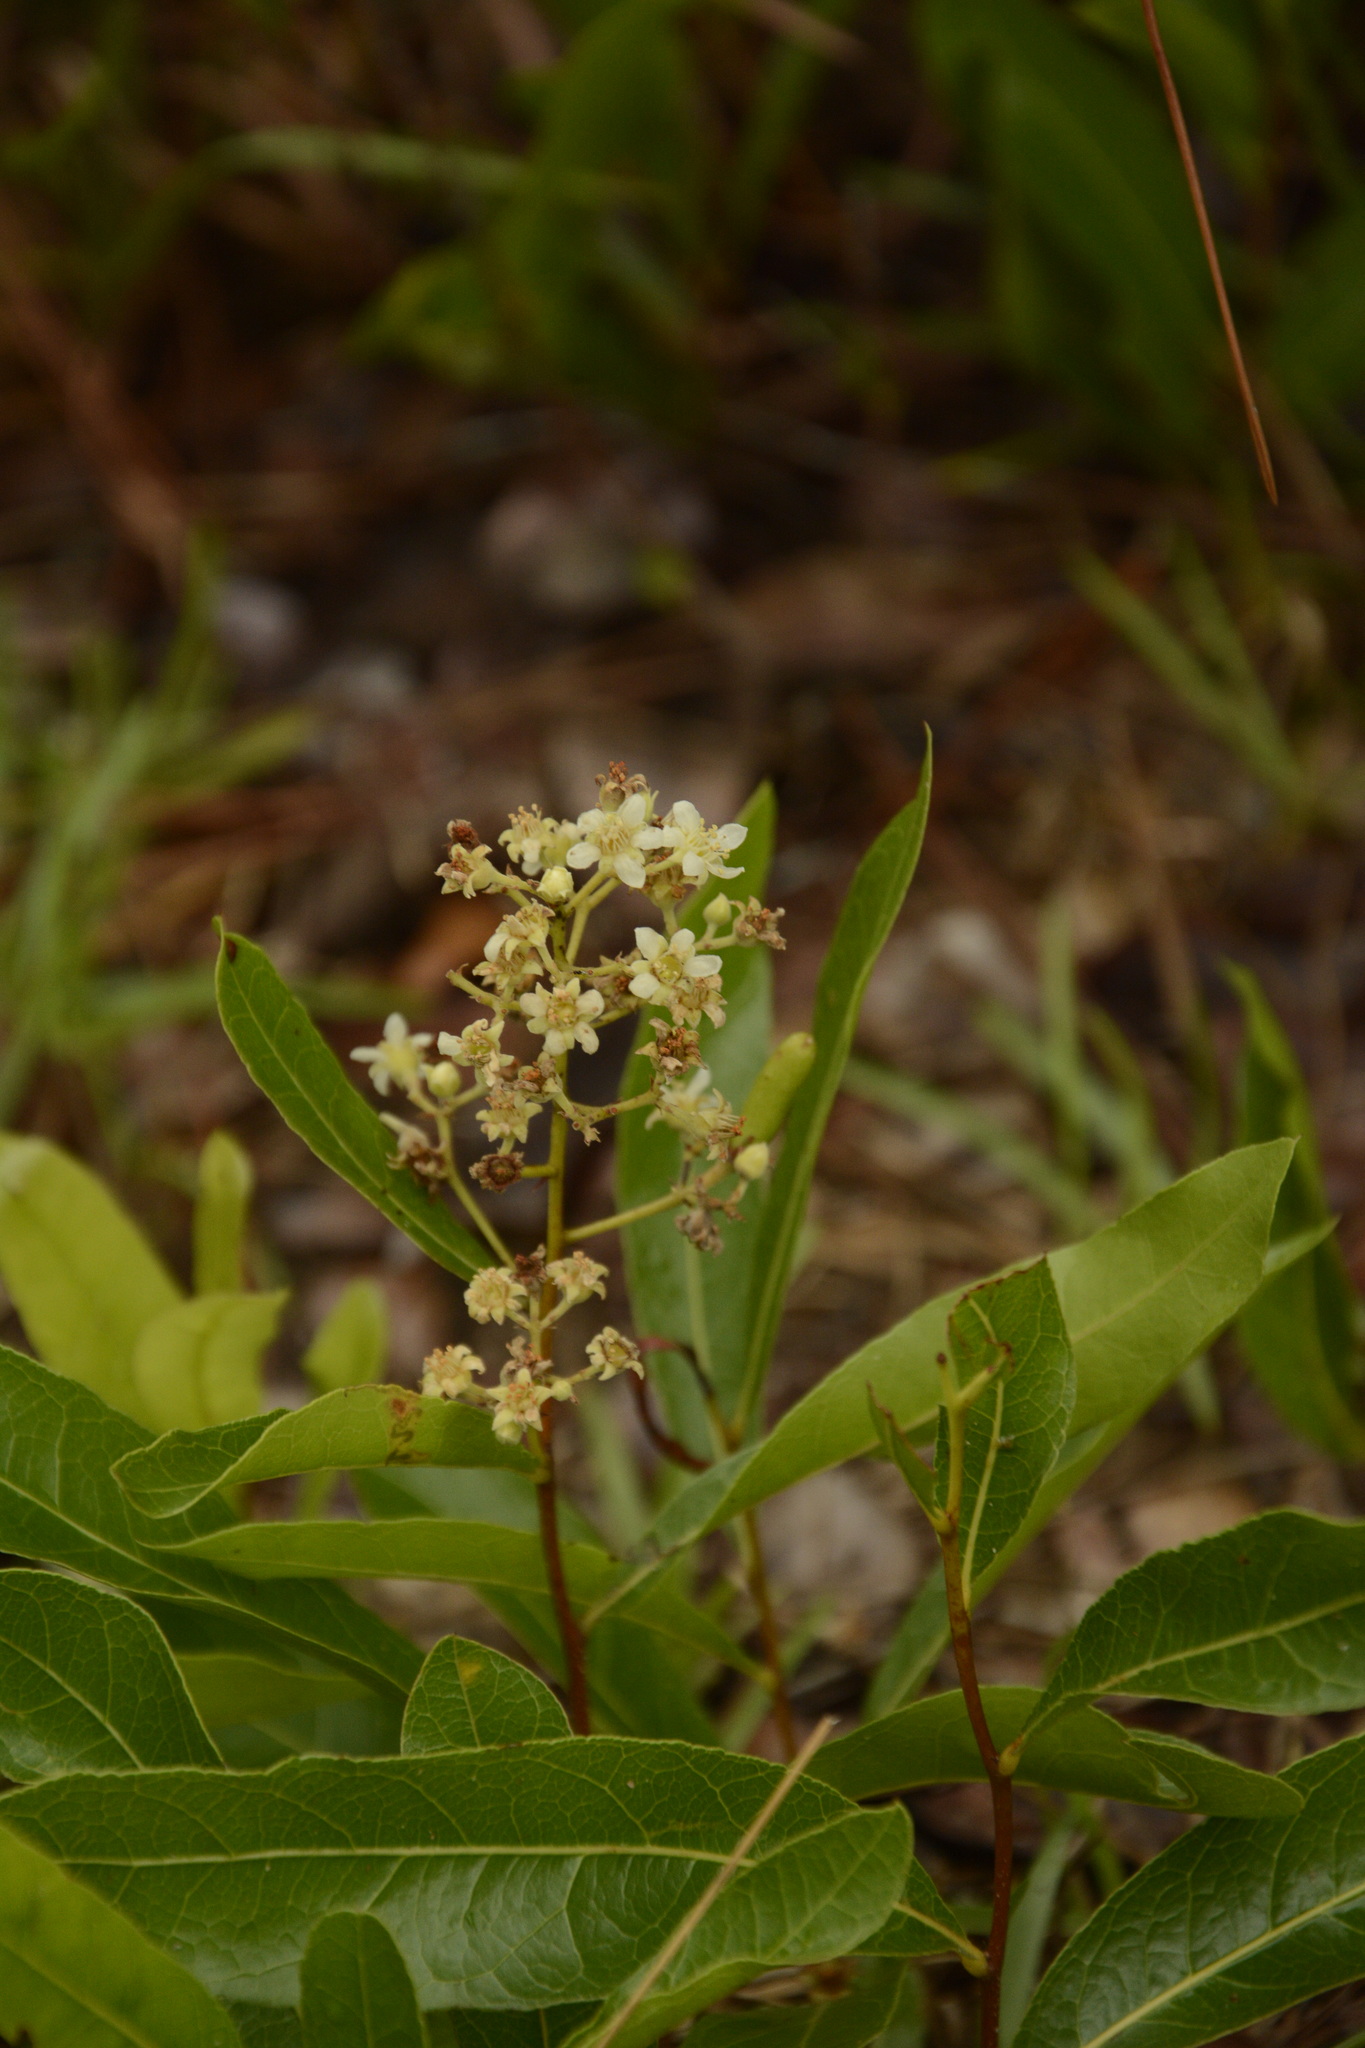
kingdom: Plantae
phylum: Tracheophyta
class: Magnoliopsida
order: Malpighiales
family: Chrysobalanaceae
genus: Geobalanus
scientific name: Geobalanus oblongifolius
